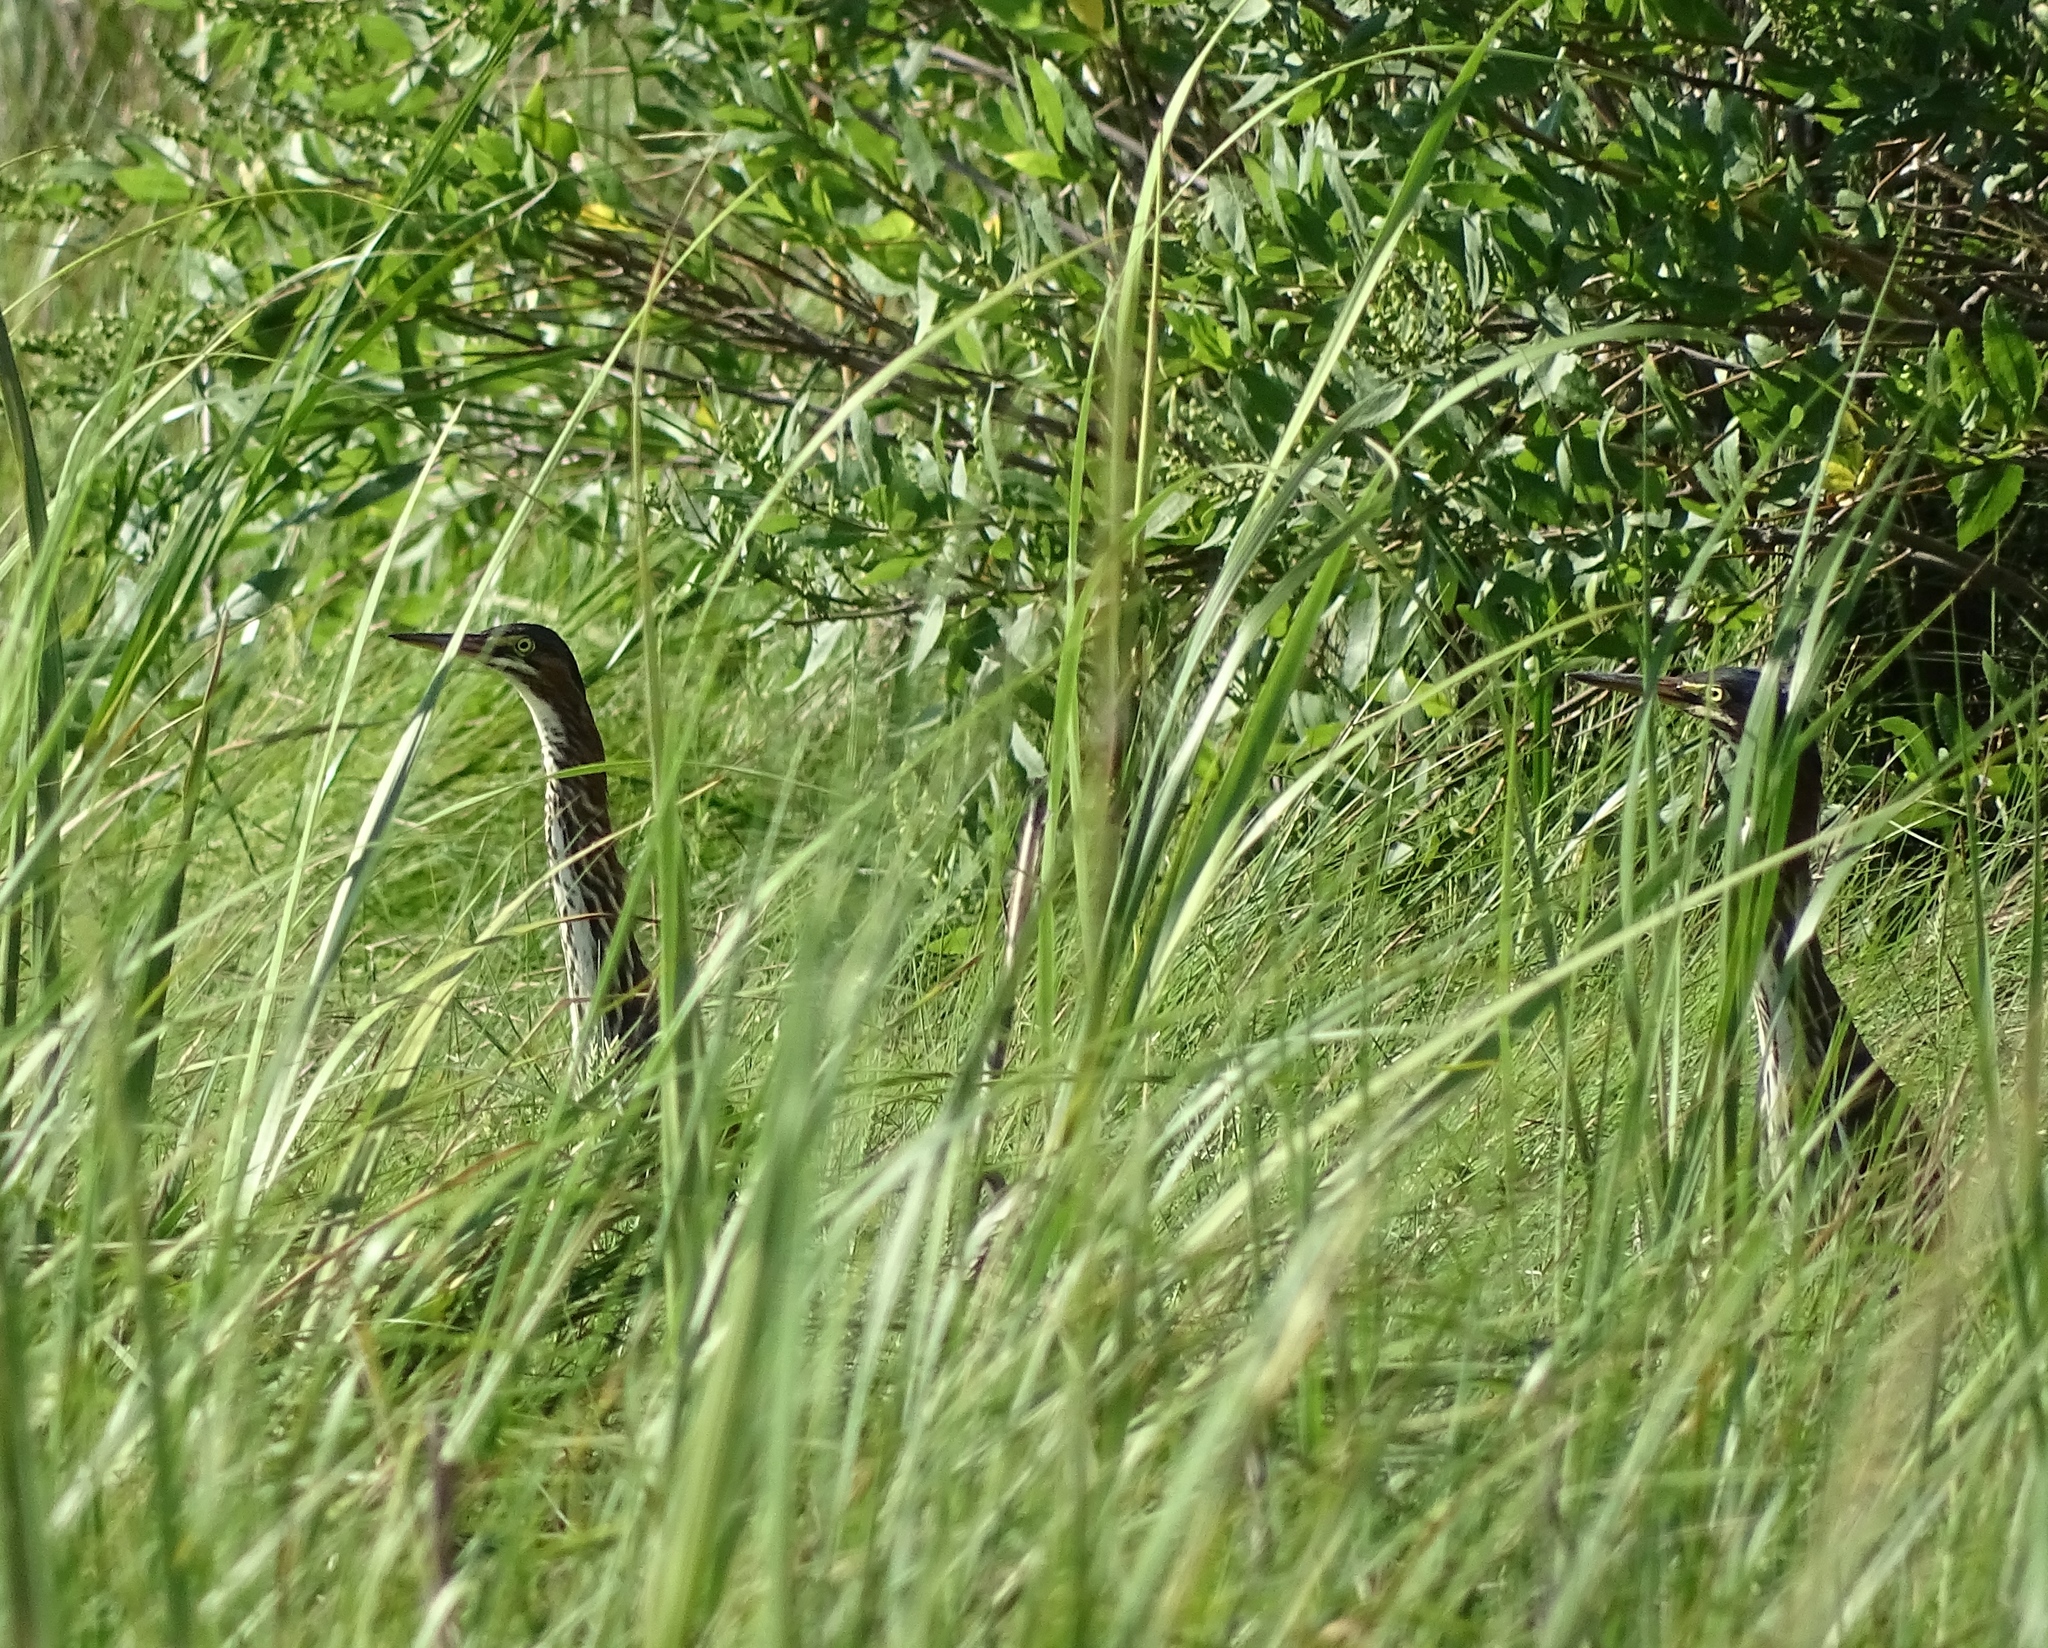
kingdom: Animalia
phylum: Chordata
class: Aves
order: Pelecaniformes
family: Ardeidae
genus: Butorides
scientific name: Butorides virescens
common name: Green heron
